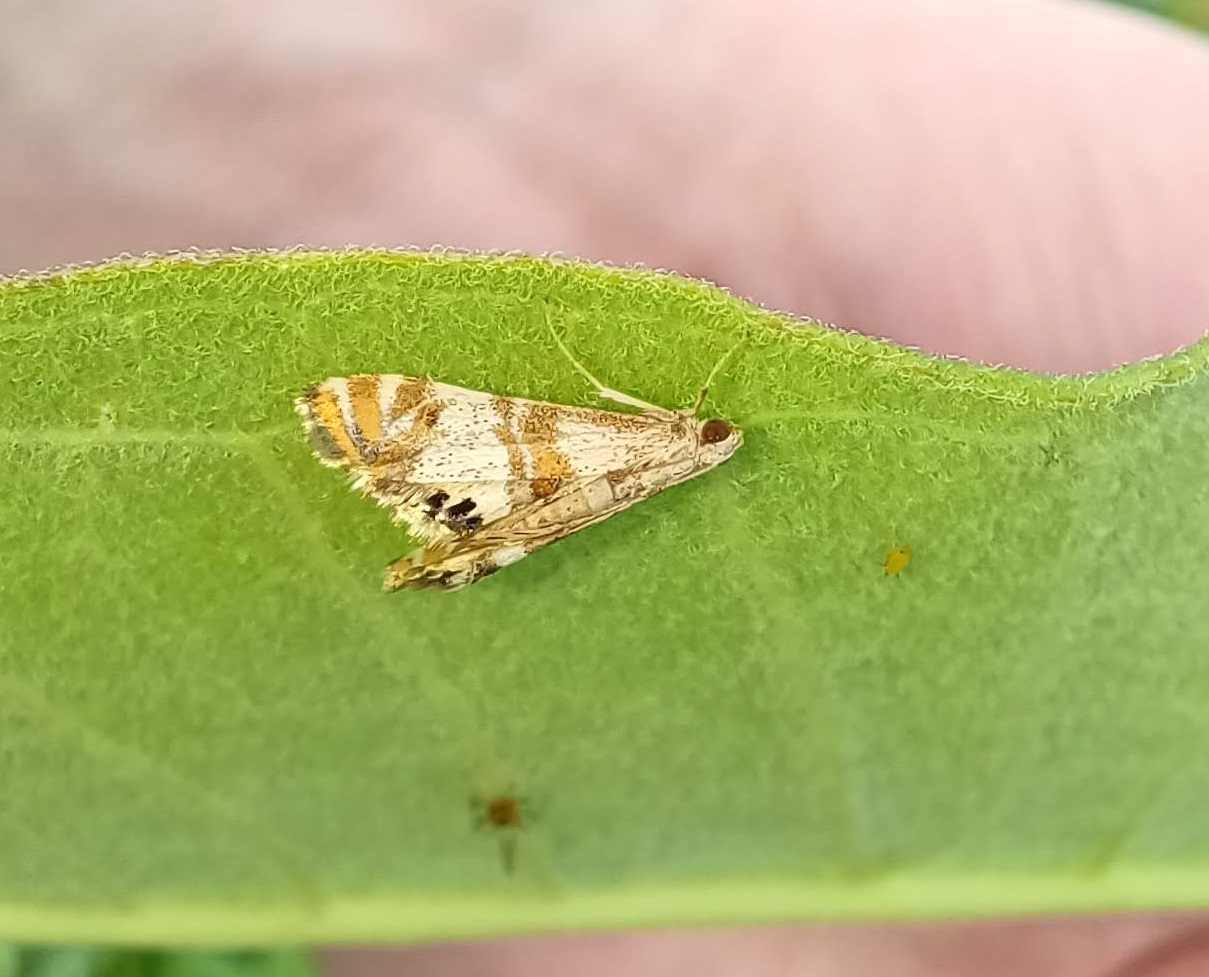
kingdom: Animalia
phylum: Arthropoda
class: Insecta
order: Lepidoptera
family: Crambidae
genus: Petrophila
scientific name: Petrophila bifascialis
